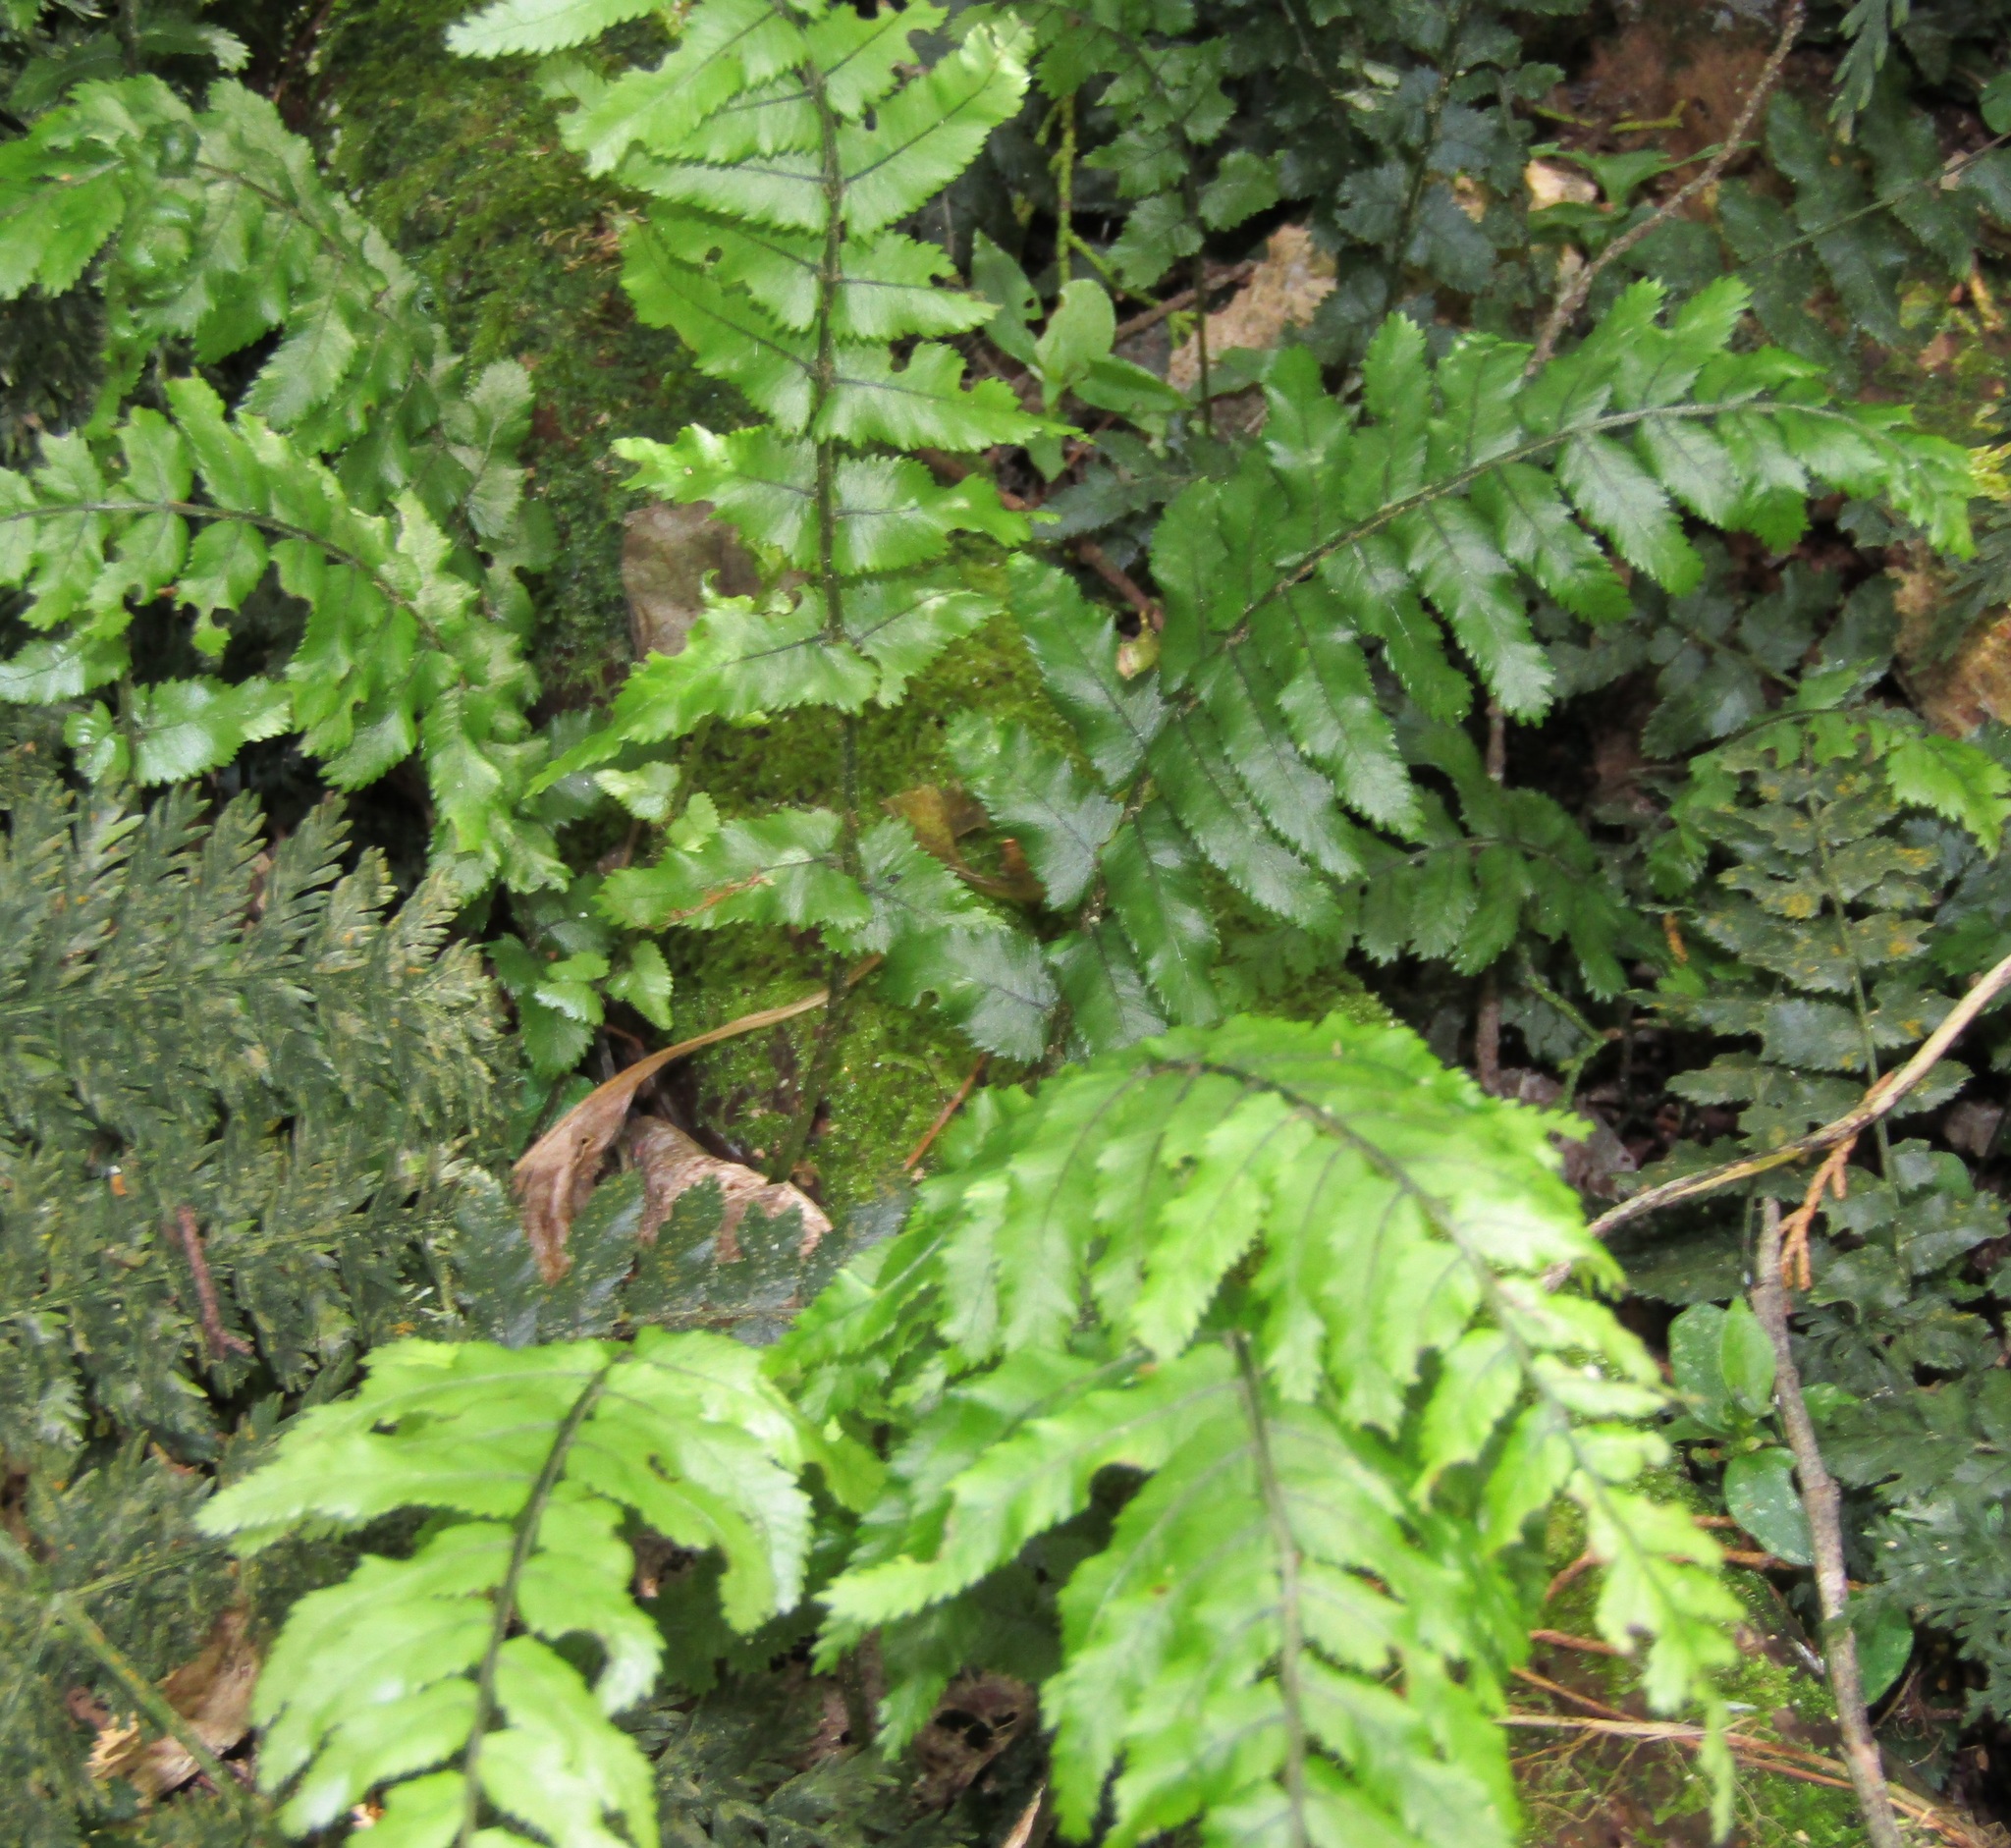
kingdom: Plantae
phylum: Tracheophyta
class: Polypodiopsida
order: Polypodiales
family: Blechnaceae
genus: Icarus
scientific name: Icarus filiformis
